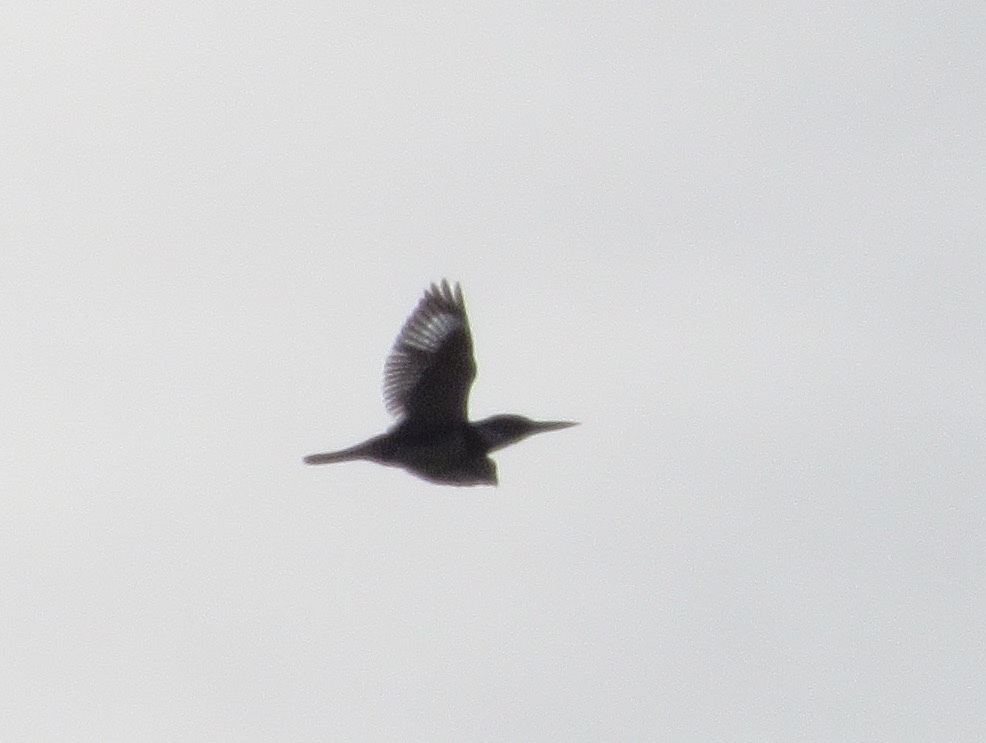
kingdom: Animalia
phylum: Chordata
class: Aves
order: Coraciiformes
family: Alcedinidae
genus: Megaceryle
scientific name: Megaceryle alcyon
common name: Belted kingfisher
